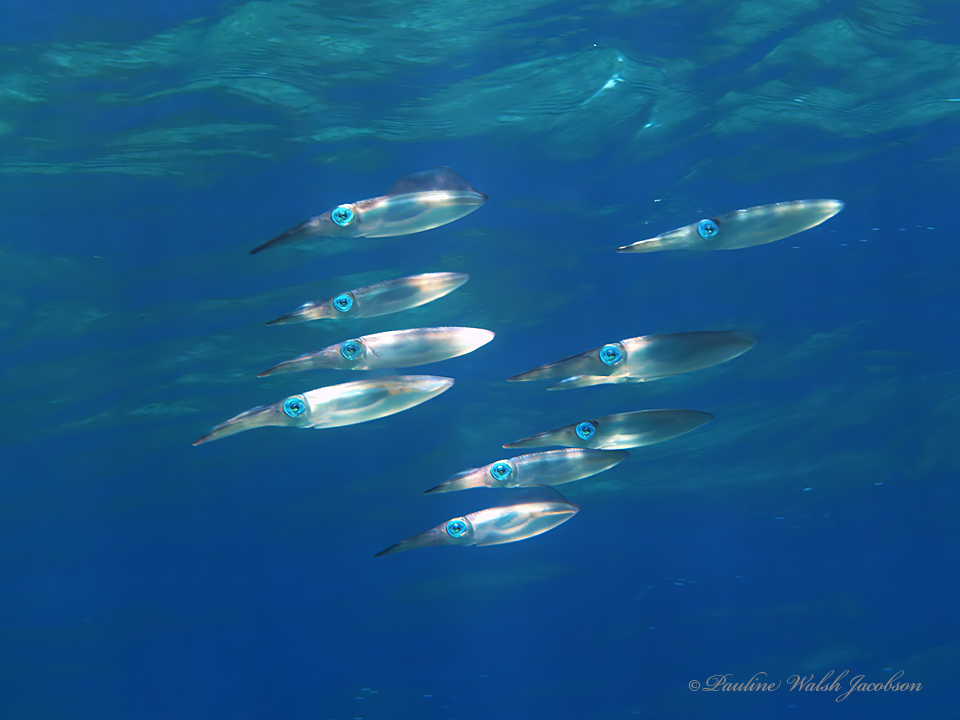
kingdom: Animalia
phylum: Mollusca
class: Cephalopoda
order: Myopsida
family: Loliginidae
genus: Sepioteuthis
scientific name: Sepioteuthis lessoniana
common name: Bigfin reef squid
